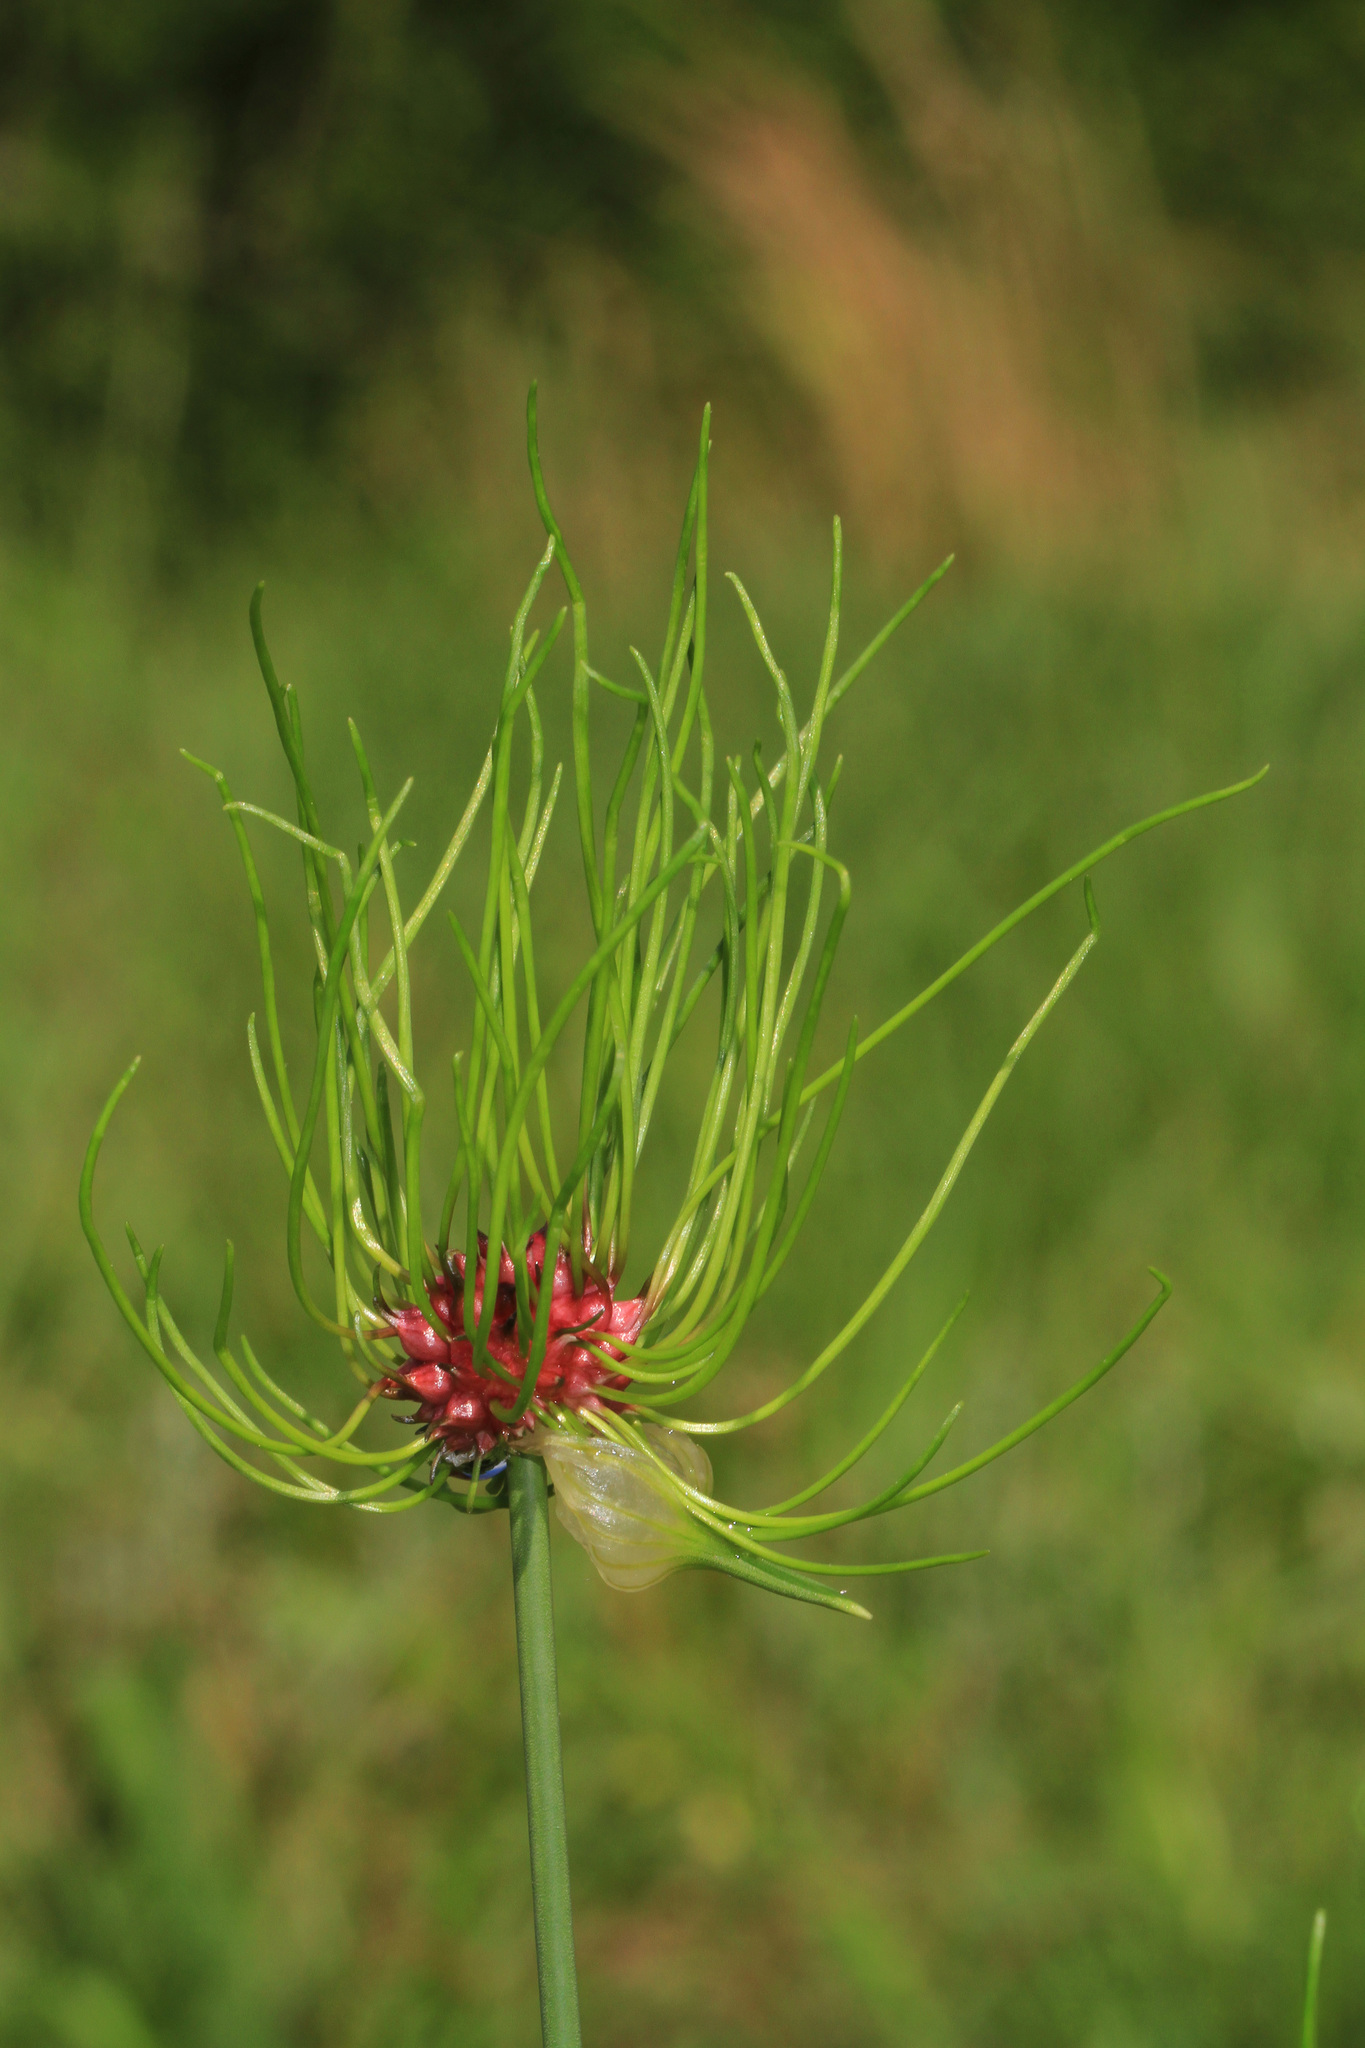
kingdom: Plantae
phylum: Tracheophyta
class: Liliopsida
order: Asparagales
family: Amaryllidaceae
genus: Allium
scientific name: Allium vineale
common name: Crow garlic
